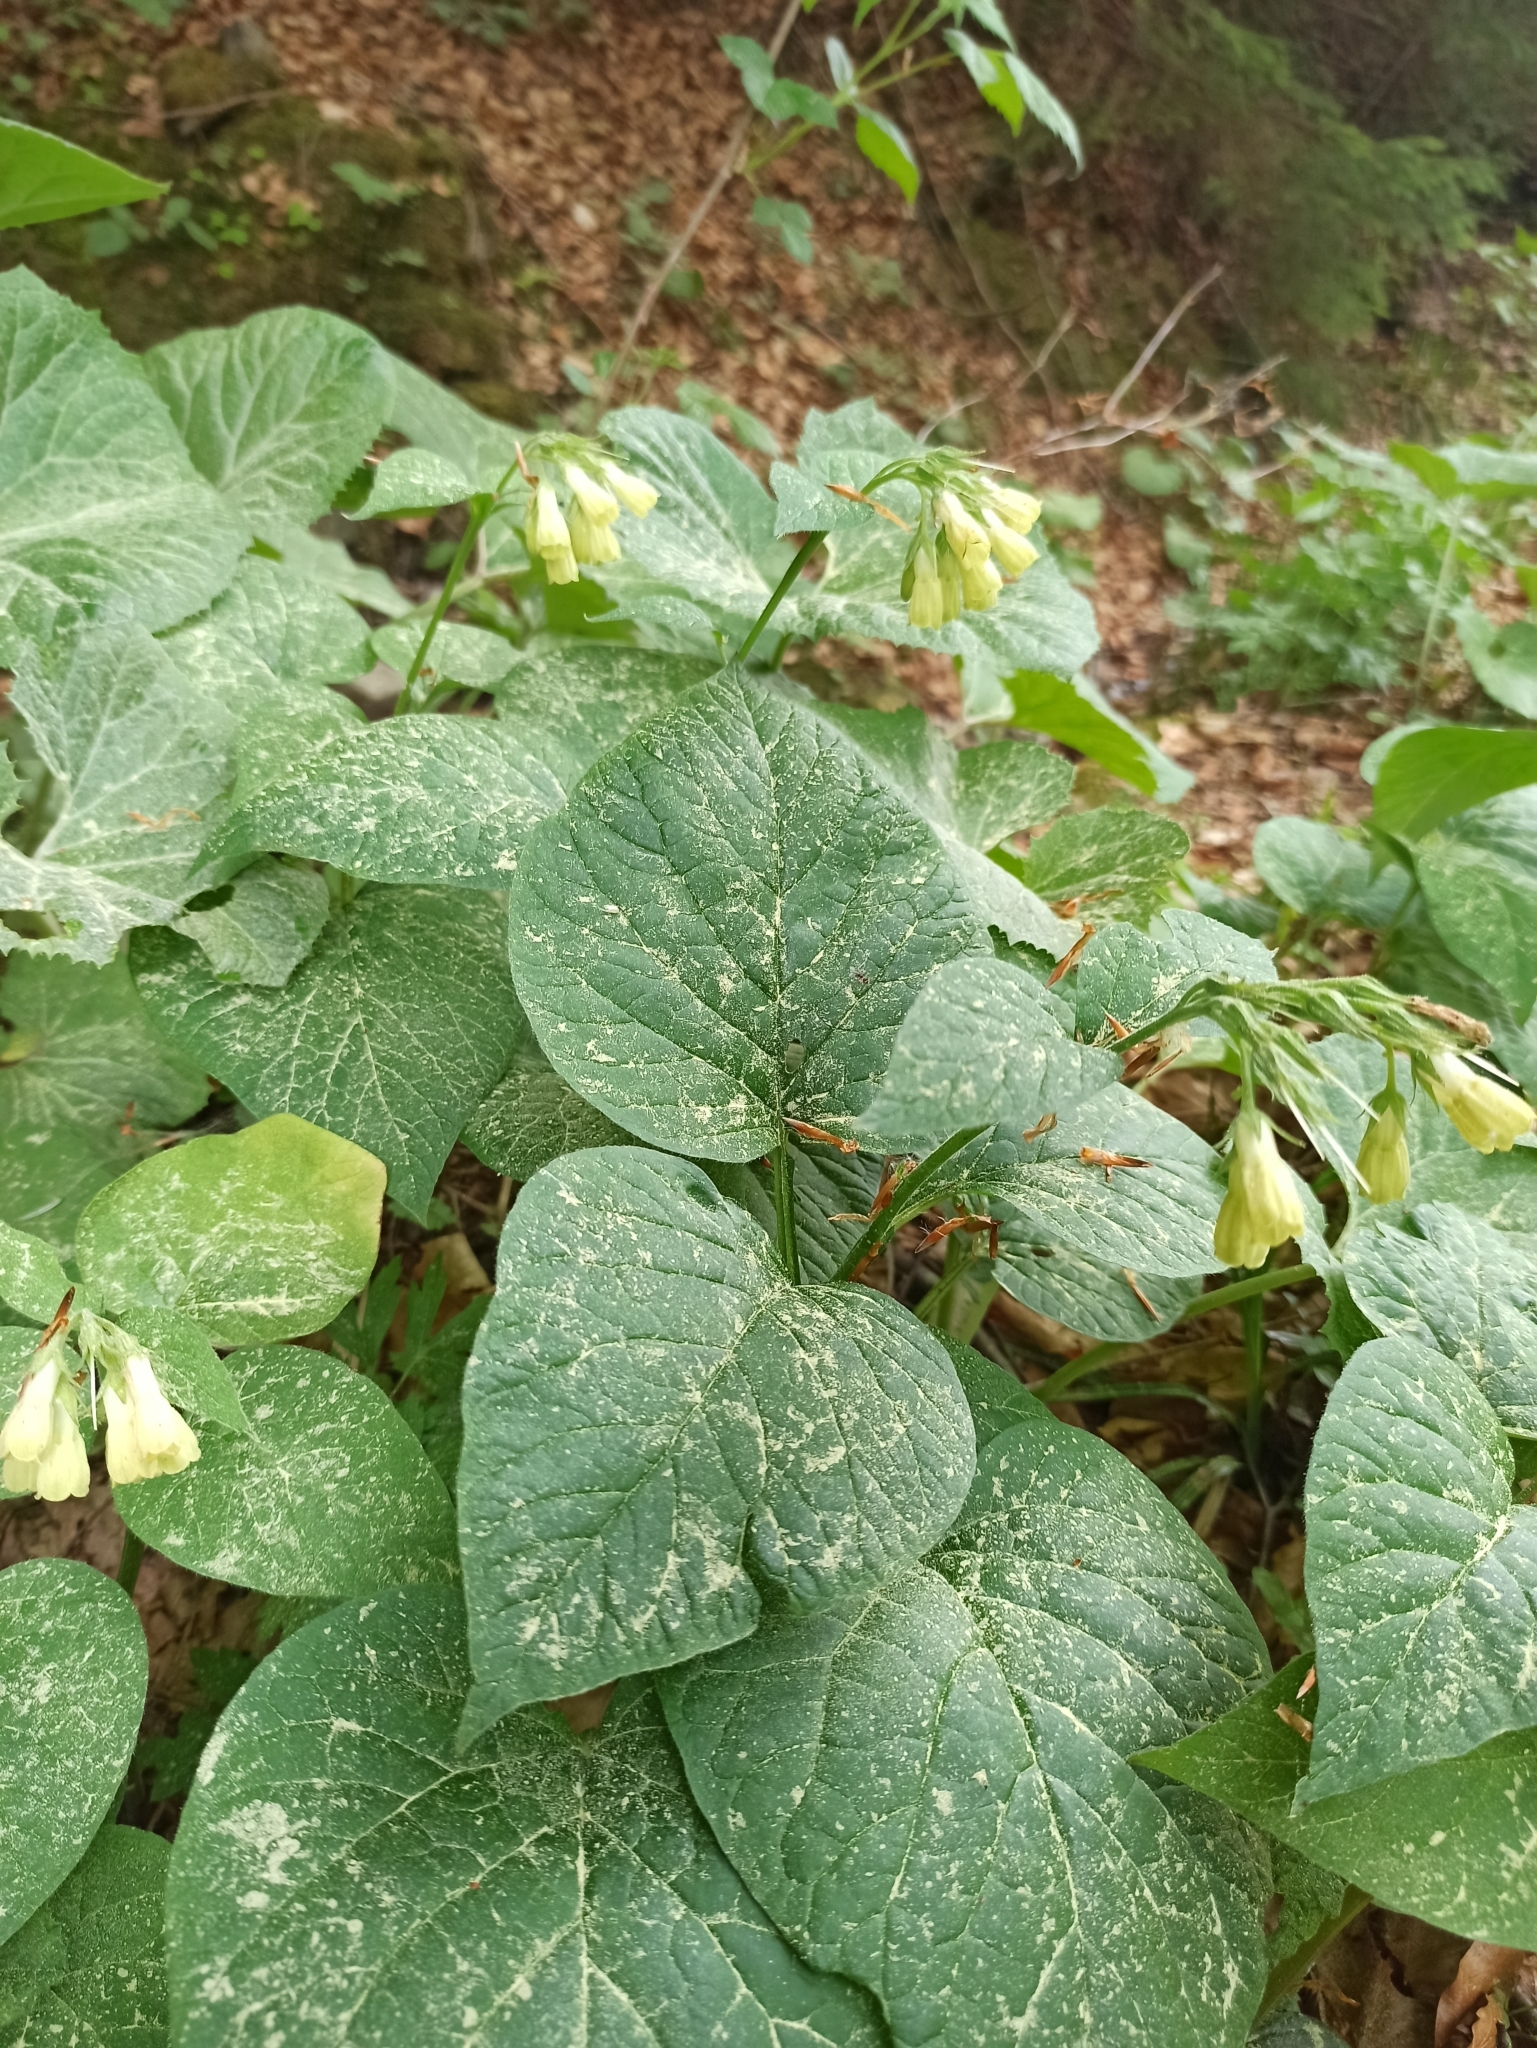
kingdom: Plantae
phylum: Tracheophyta
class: Magnoliopsida
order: Boraginales
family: Boraginaceae
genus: Symphytum
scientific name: Symphytum tuberosum
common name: Tuberous comfrey
